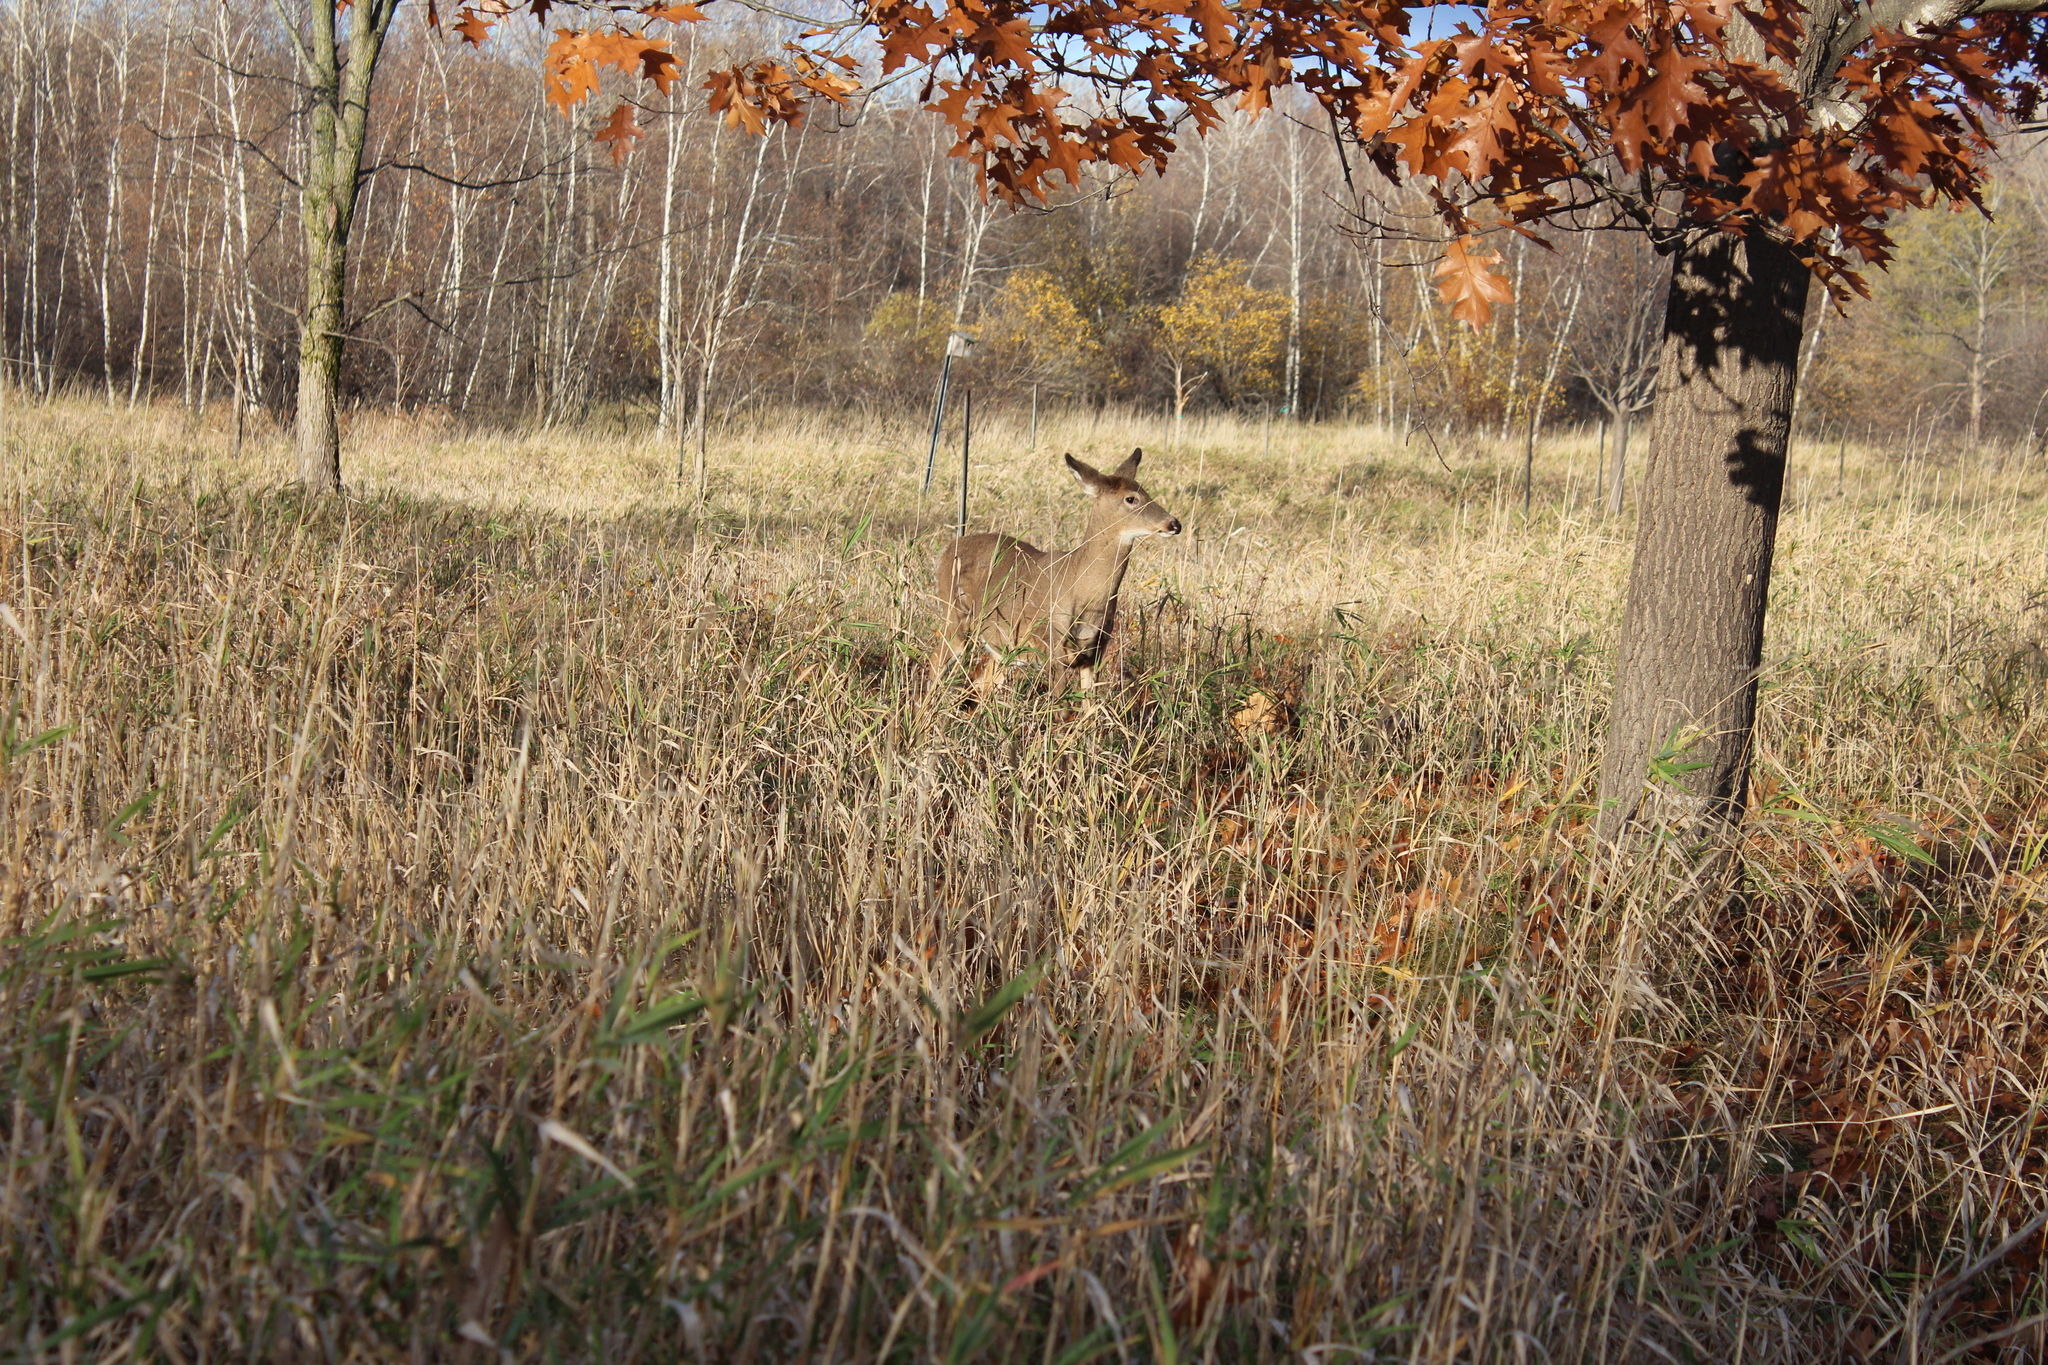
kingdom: Animalia
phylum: Chordata
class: Mammalia
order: Artiodactyla
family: Cervidae
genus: Odocoileus
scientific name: Odocoileus virginianus
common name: White-tailed deer
